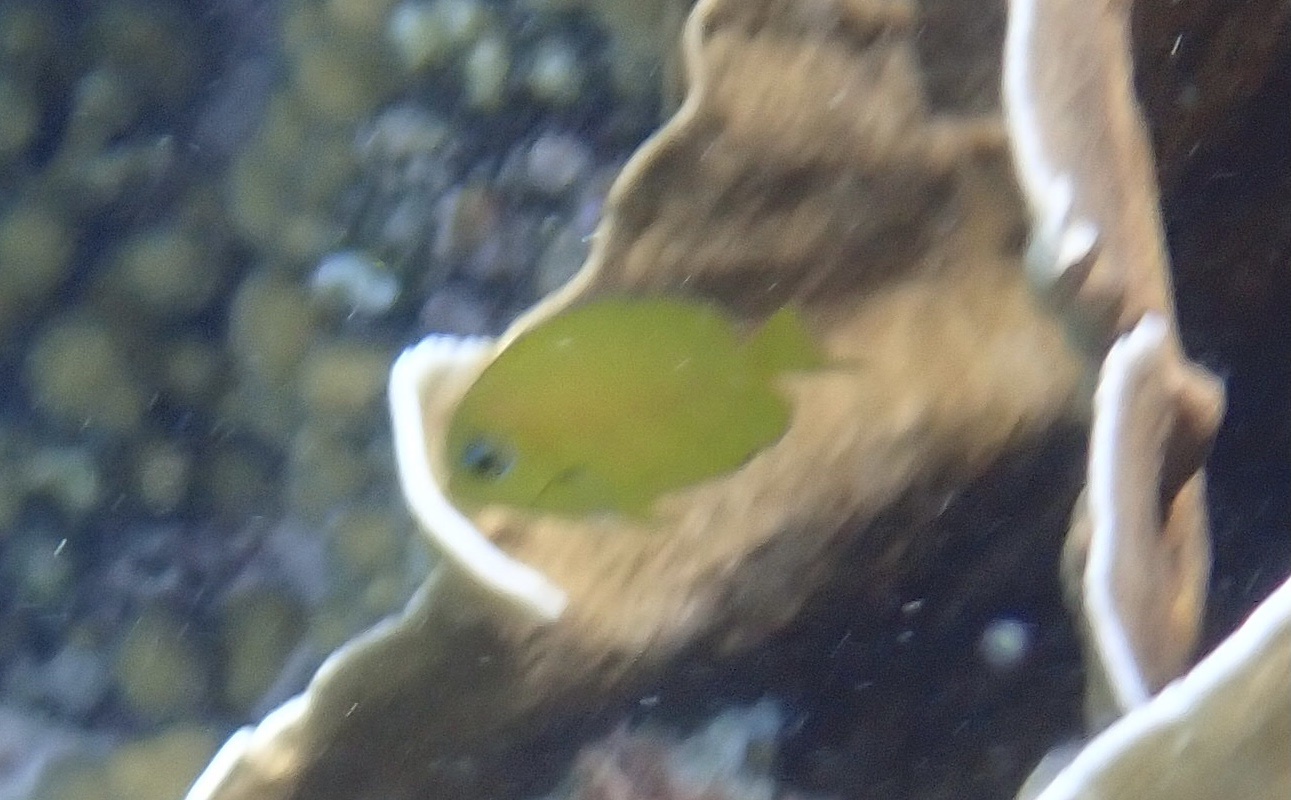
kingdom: Animalia
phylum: Chordata
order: Perciformes
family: Acanthuridae
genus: Acanthurus
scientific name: Acanthurus coeruleus
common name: Blue tang
